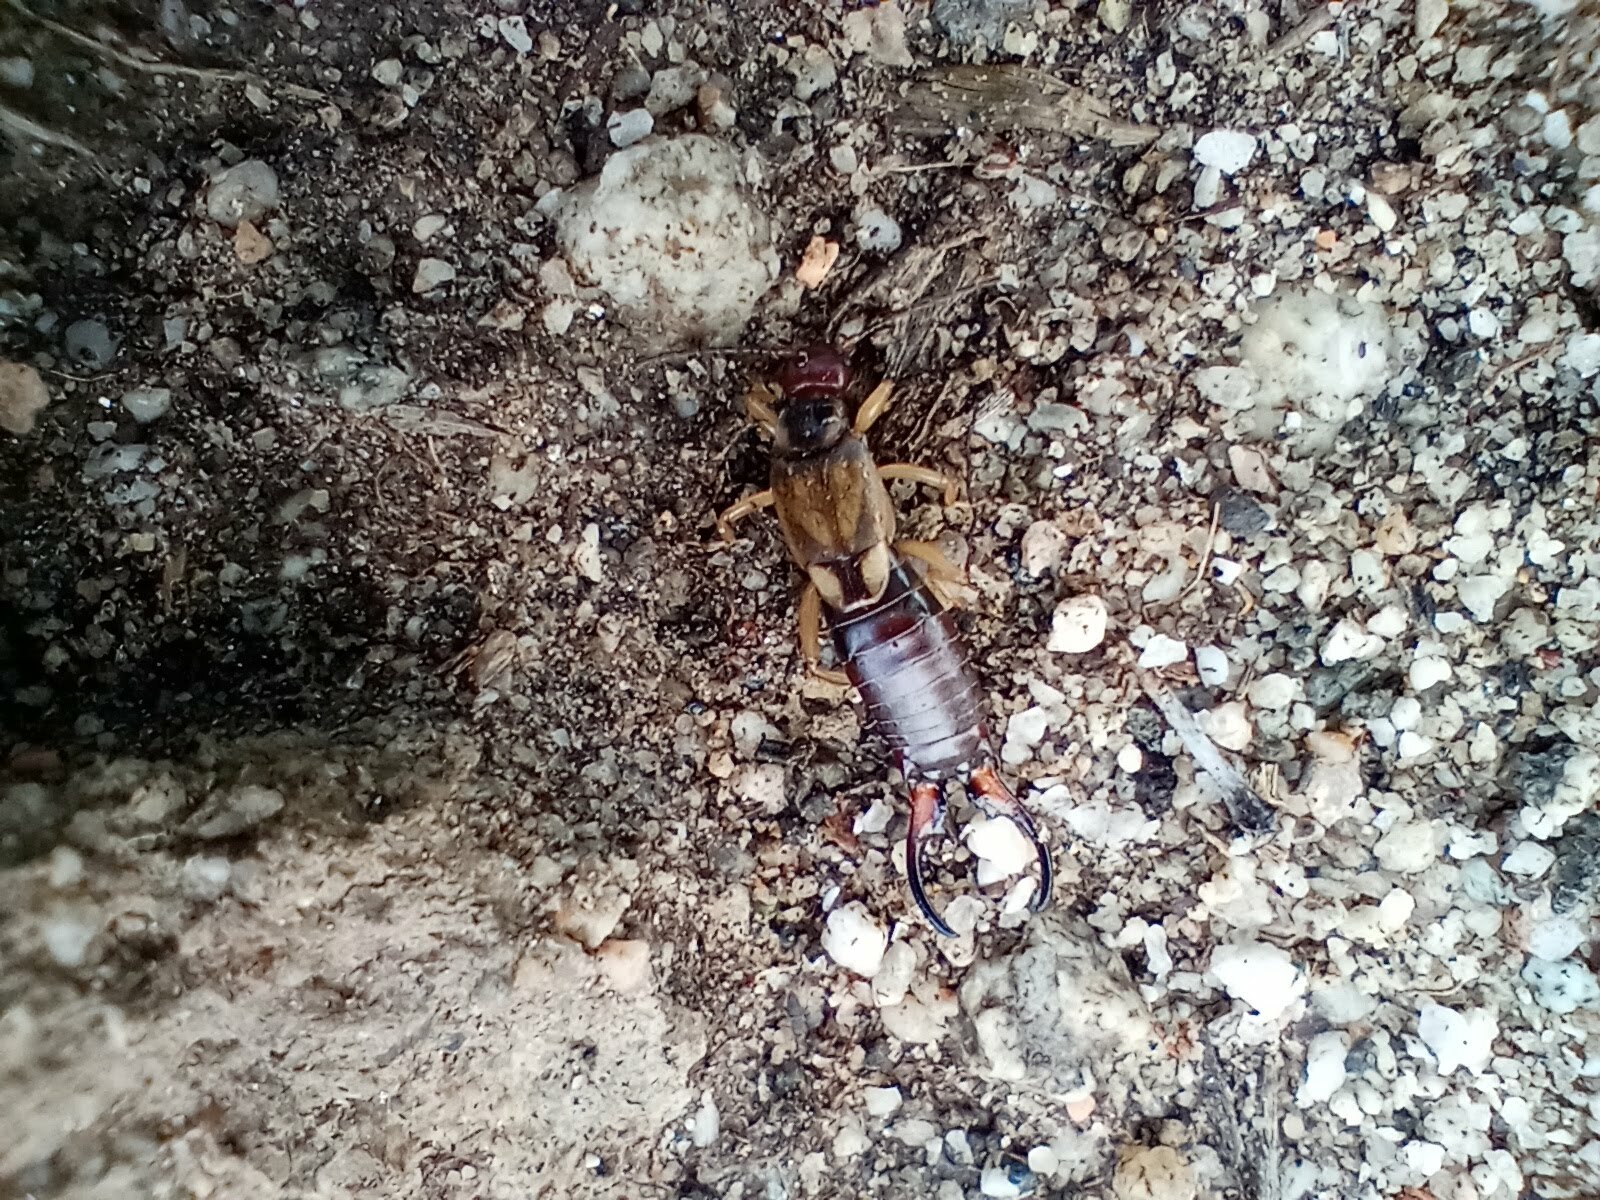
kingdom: Animalia
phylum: Arthropoda
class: Insecta
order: Dermaptera
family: Forficulidae
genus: Forficula
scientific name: Forficula
